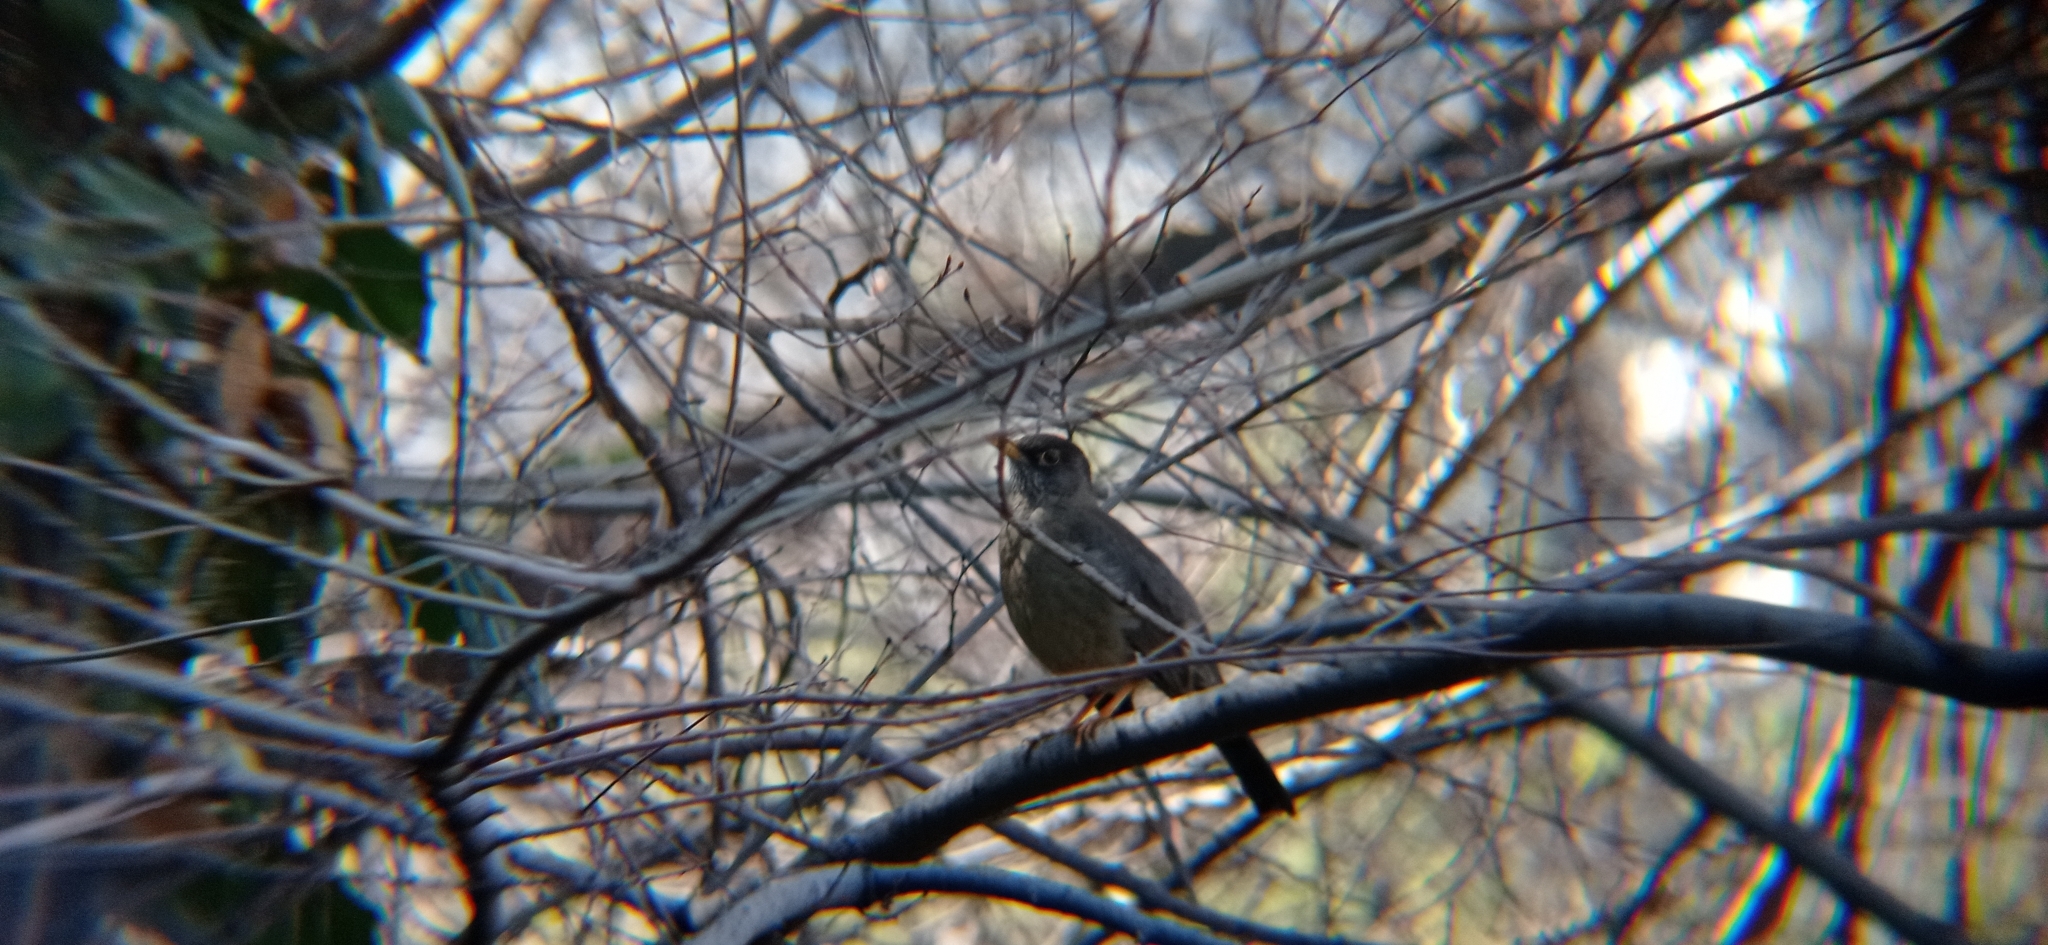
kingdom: Animalia
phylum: Chordata
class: Aves
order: Passeriformes
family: Turdidae
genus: Turdus
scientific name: Turdus falcklandii
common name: Austral thrush
